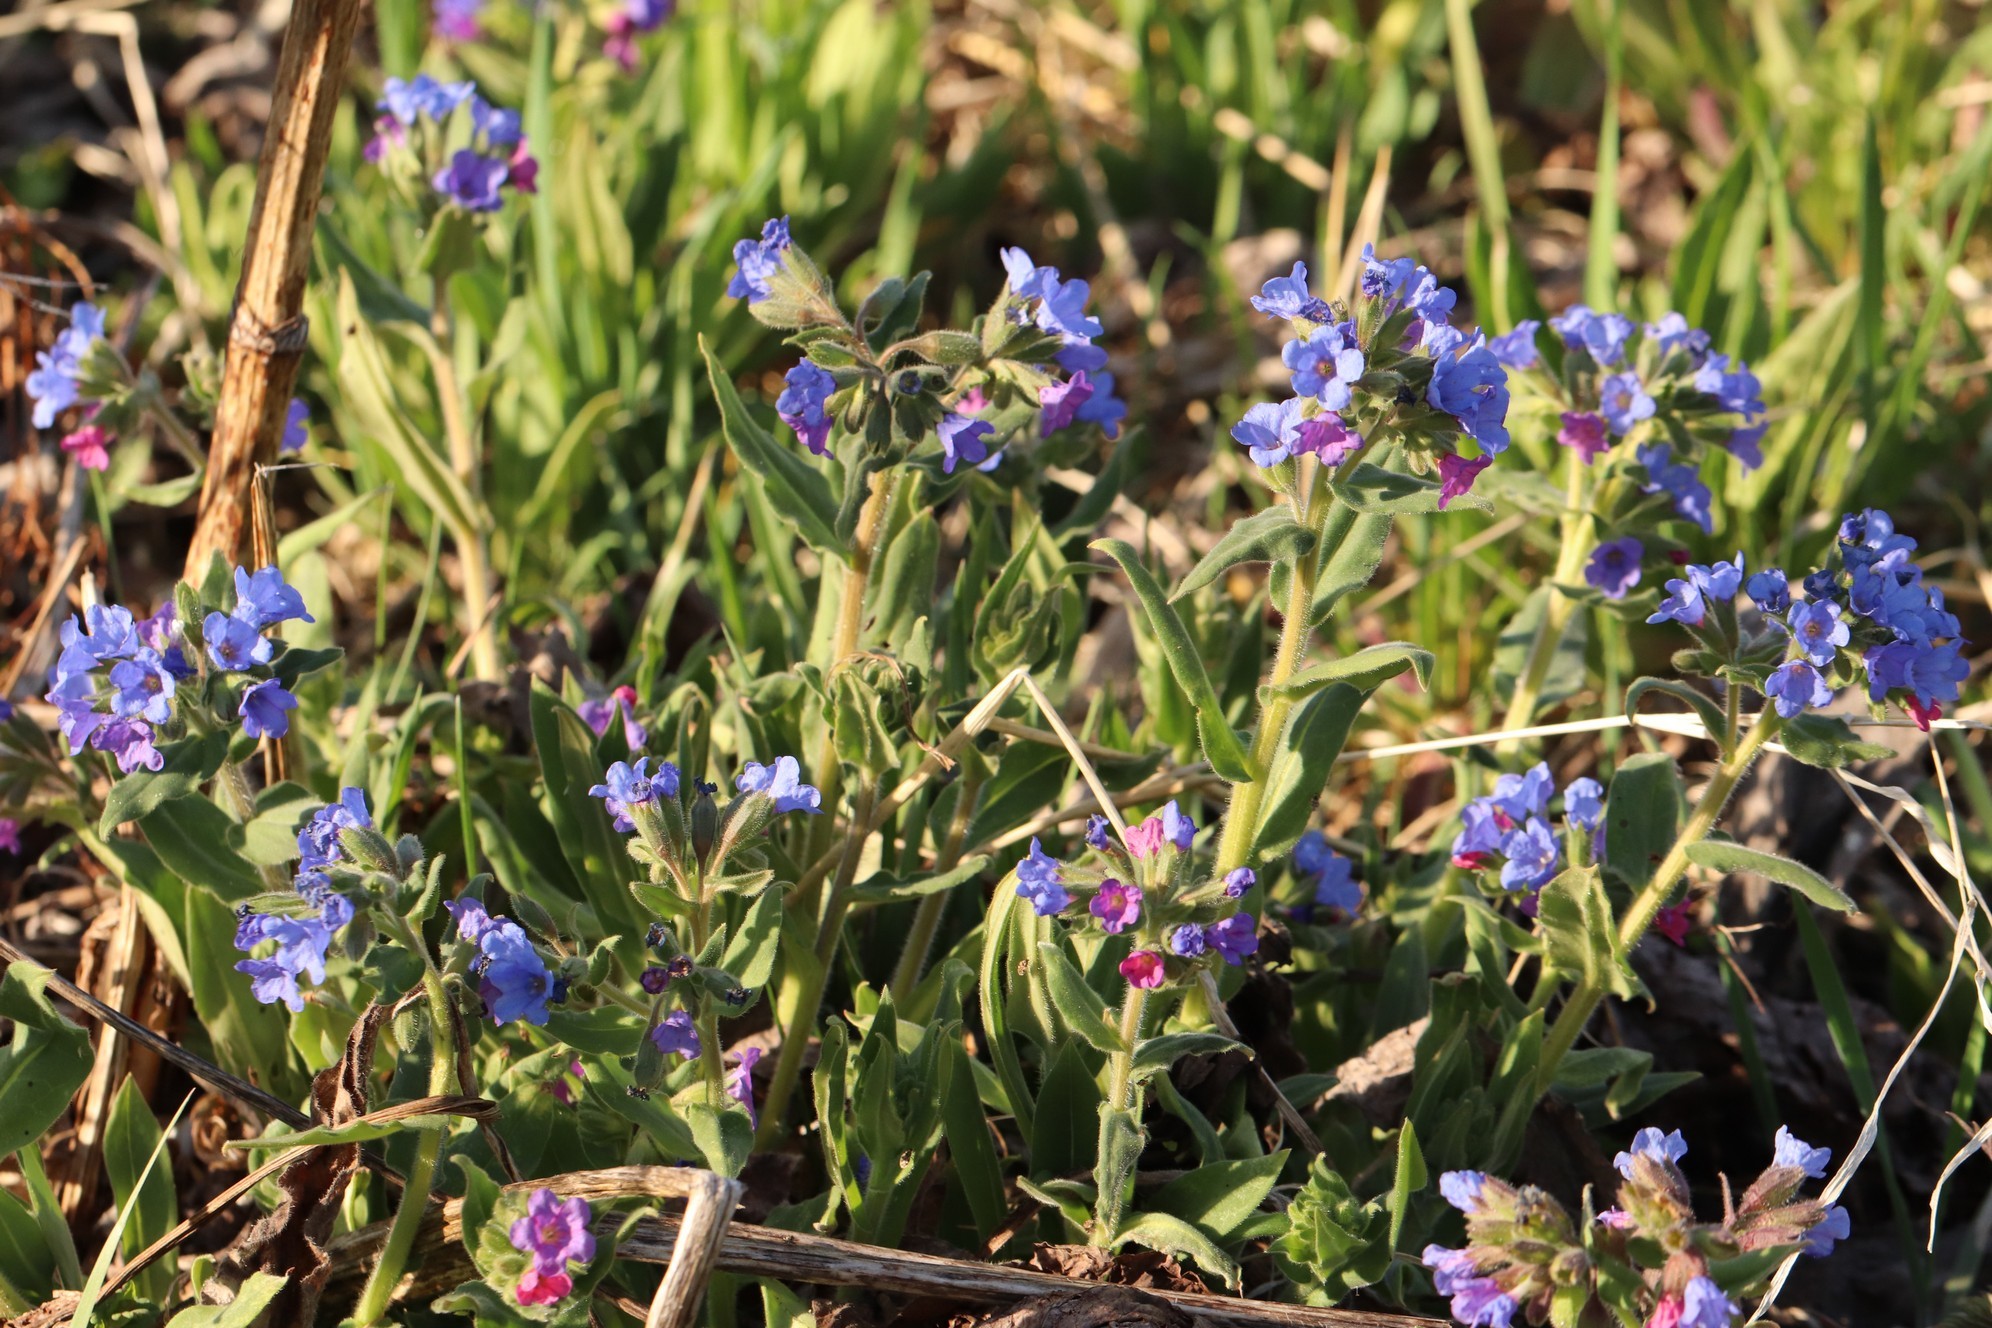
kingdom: Plantae
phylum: Tracheophyta
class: Magnoliopsida
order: Boraginales
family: Boraginaceae
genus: Pulmonaria
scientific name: Pulmonaria mollis
